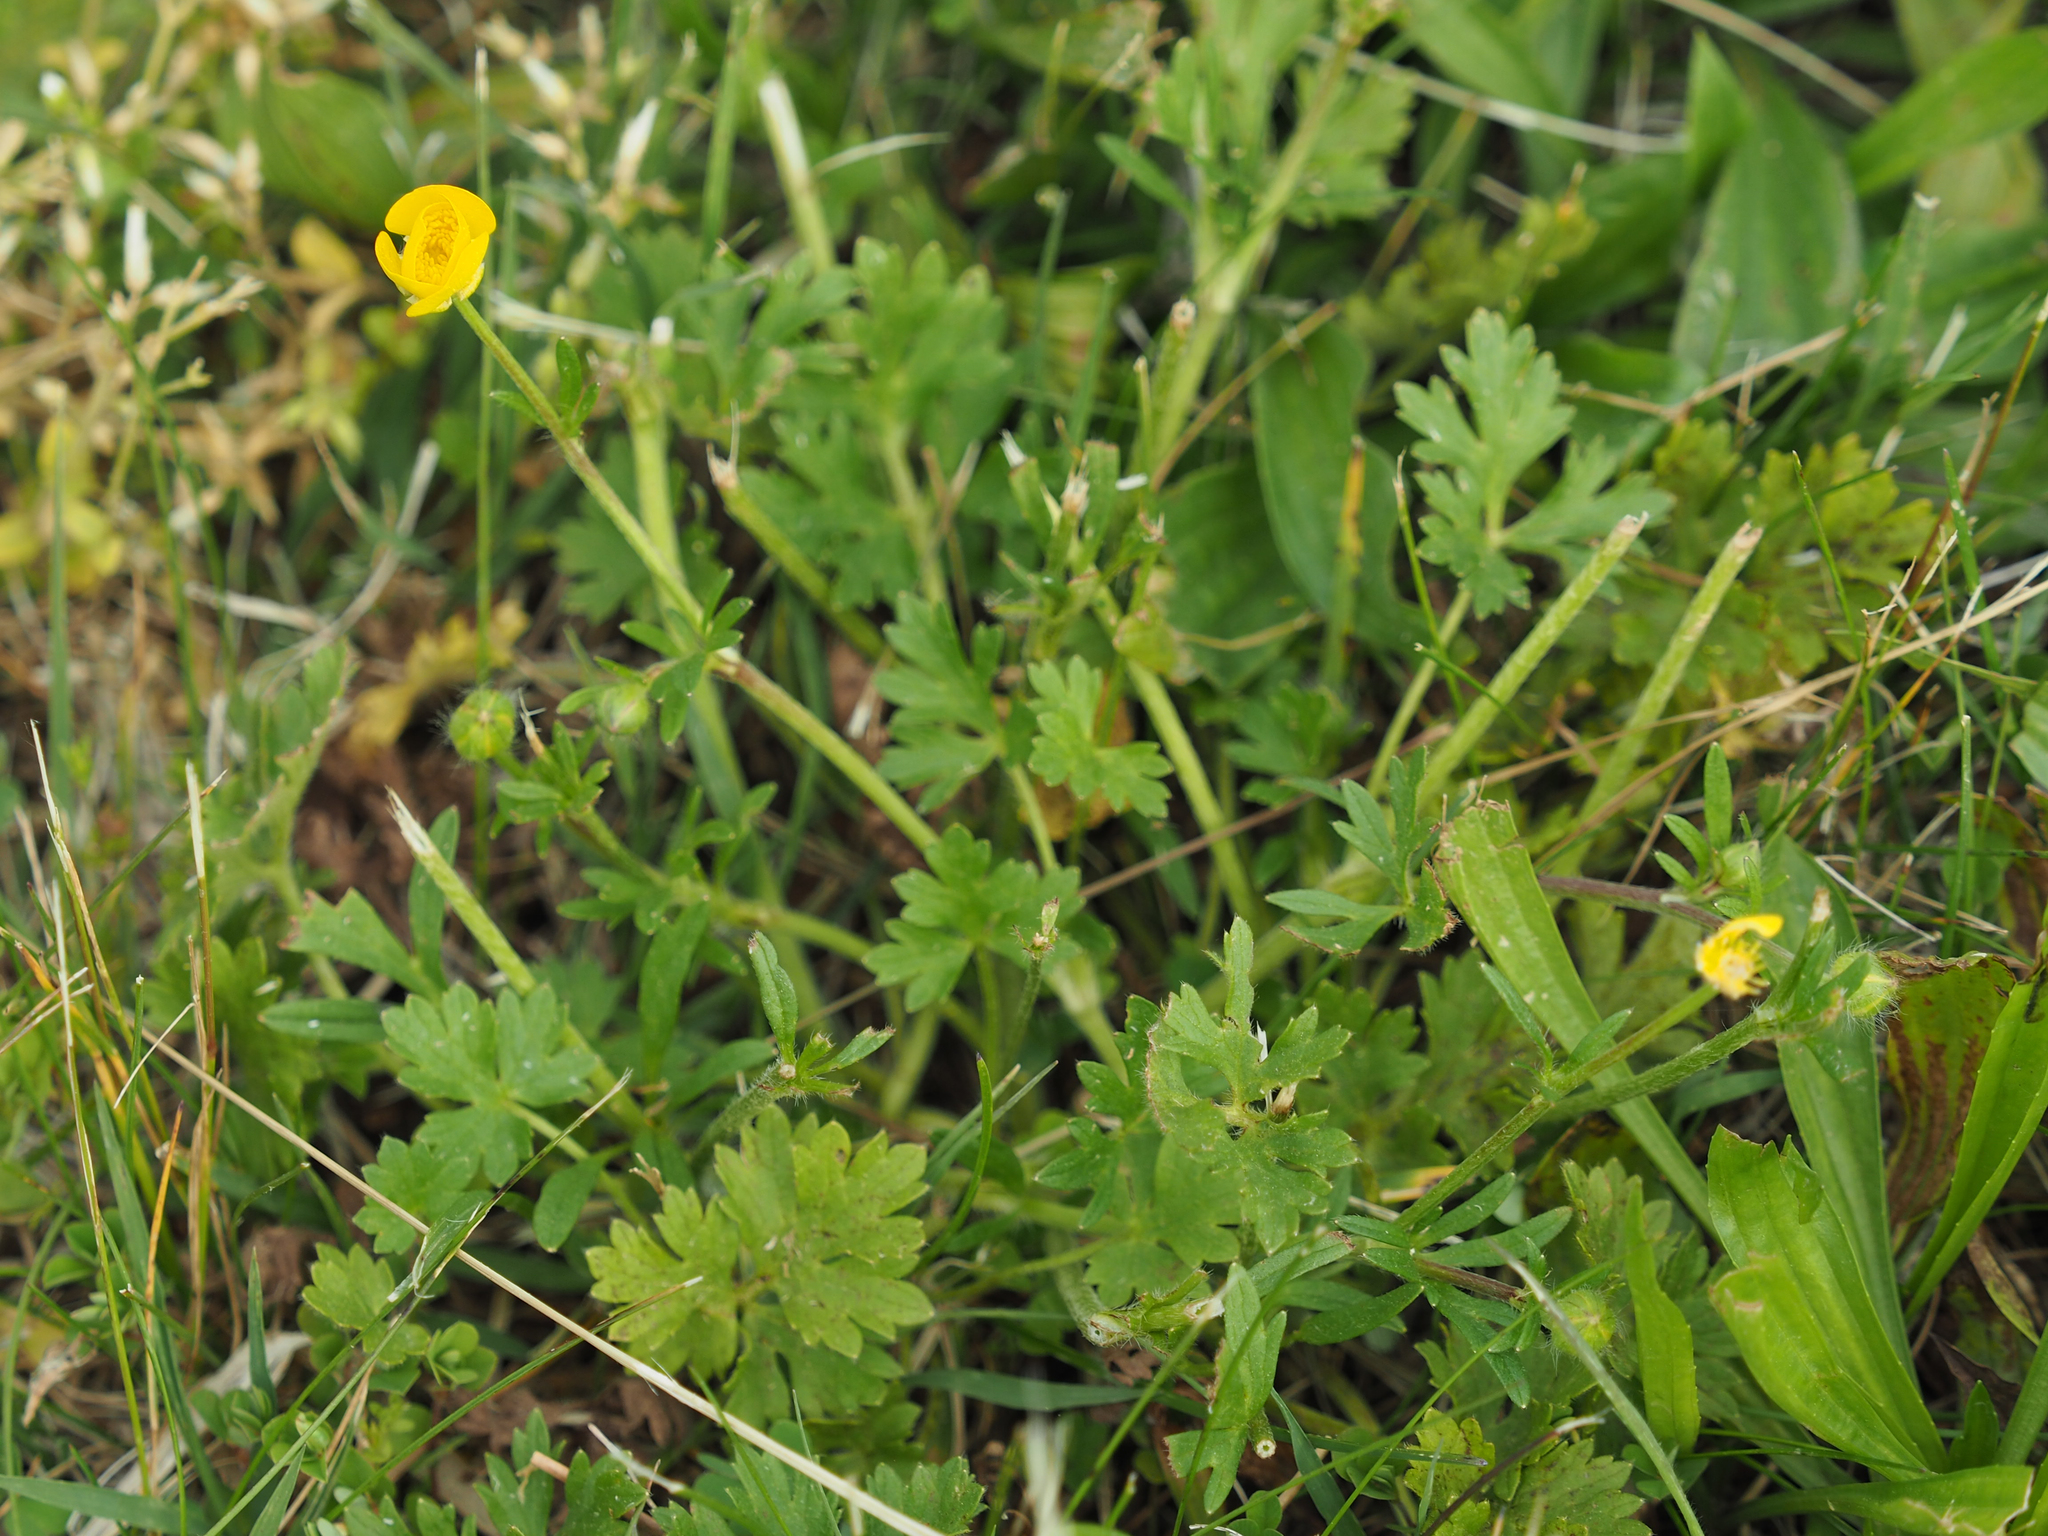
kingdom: Plantae
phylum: Tracheophyta
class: Magnoliopsida
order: Ranunculales
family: Ranunculaceae
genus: Ranunculus
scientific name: Ranunculus bulbosus
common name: Bulbous buttercup
